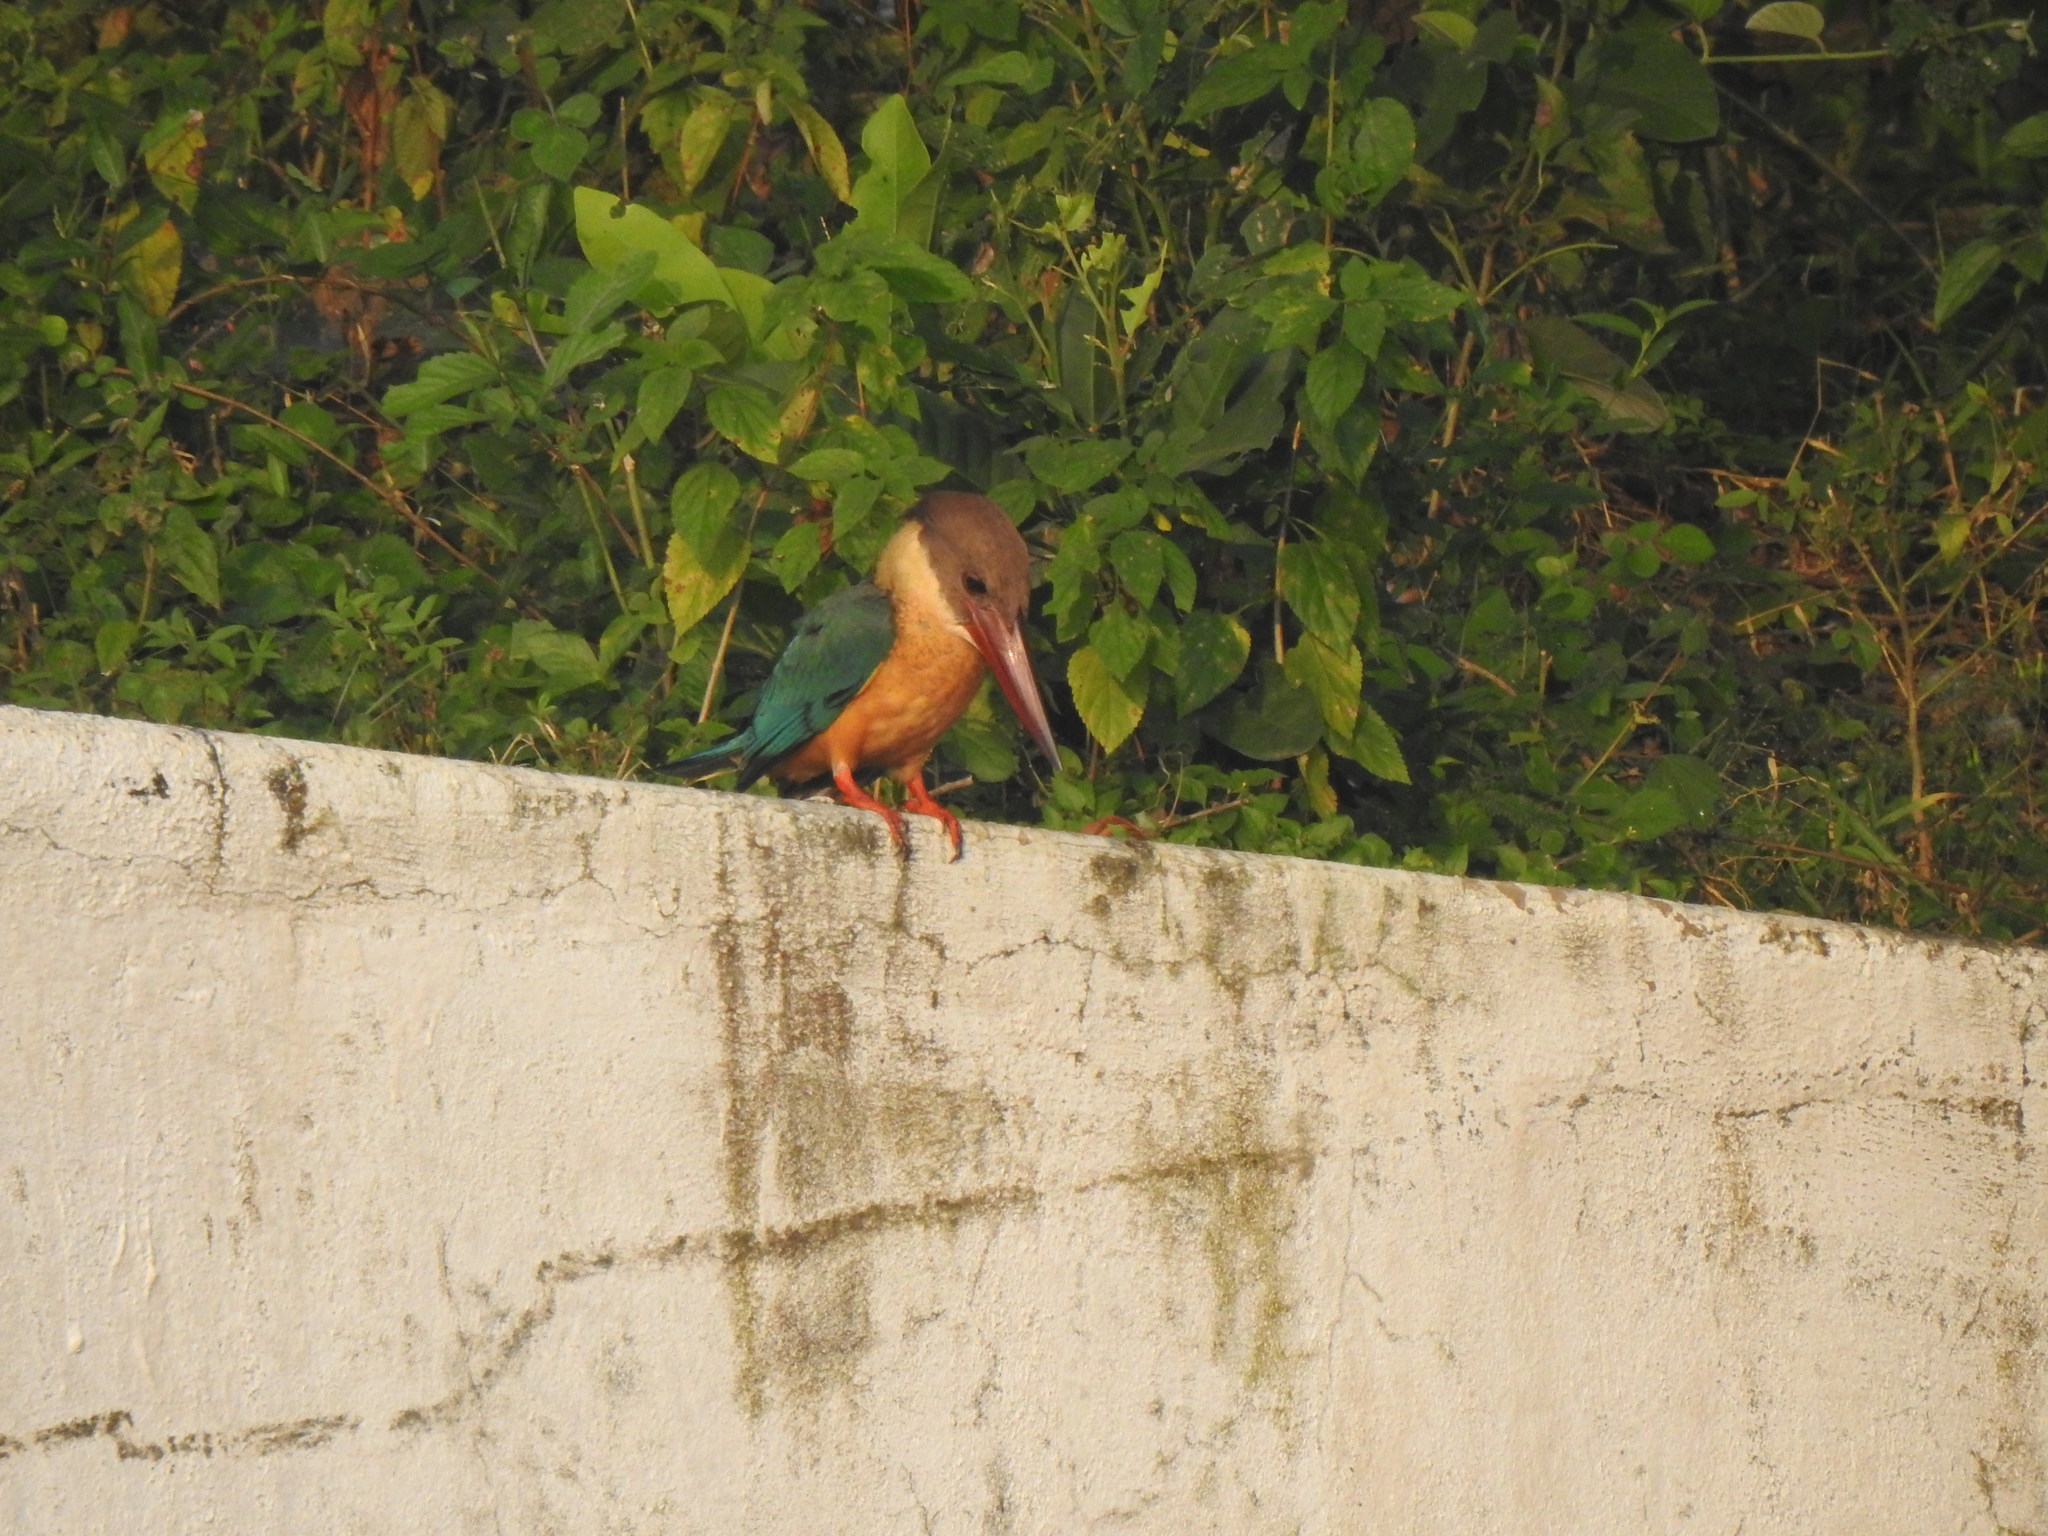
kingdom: Animalia
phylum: Chordata
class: Aves
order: Coraciiformes
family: Alcedinidae
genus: Pelargopsis
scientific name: Pelargopsis capensis
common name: Stork-billed kingfisher
